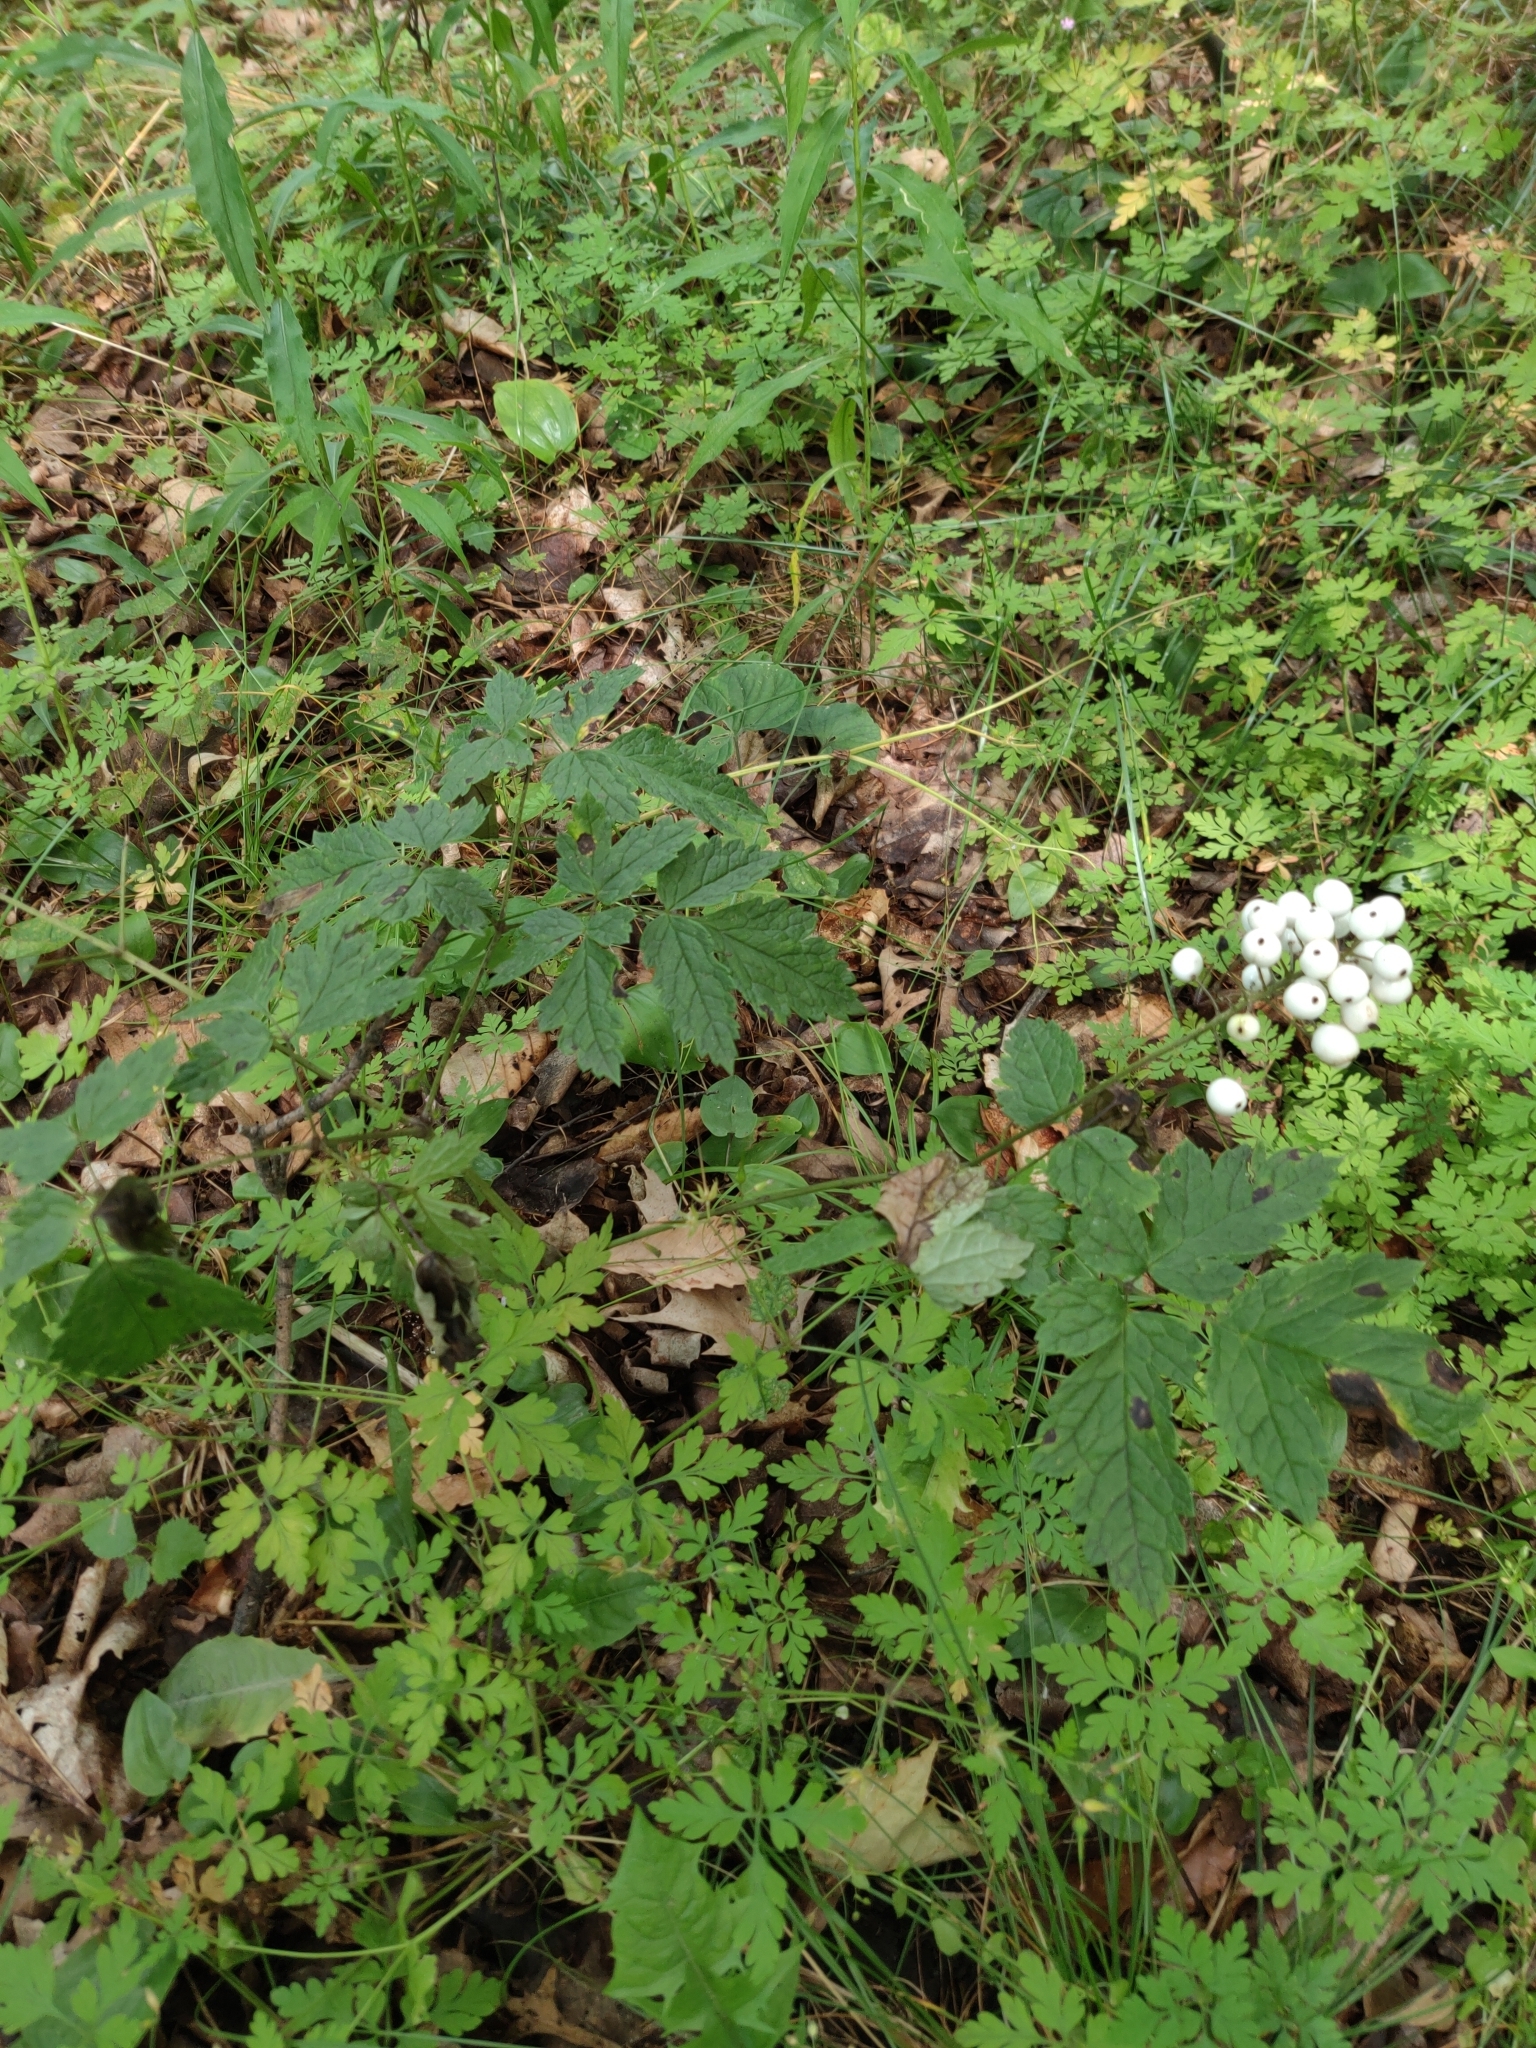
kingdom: Plantae
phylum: Tracheophyta
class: Magnoliopsida
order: Ranunculales
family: Ranunculaceae
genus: Actaea
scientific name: Actaea rubra
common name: Red baneberry
